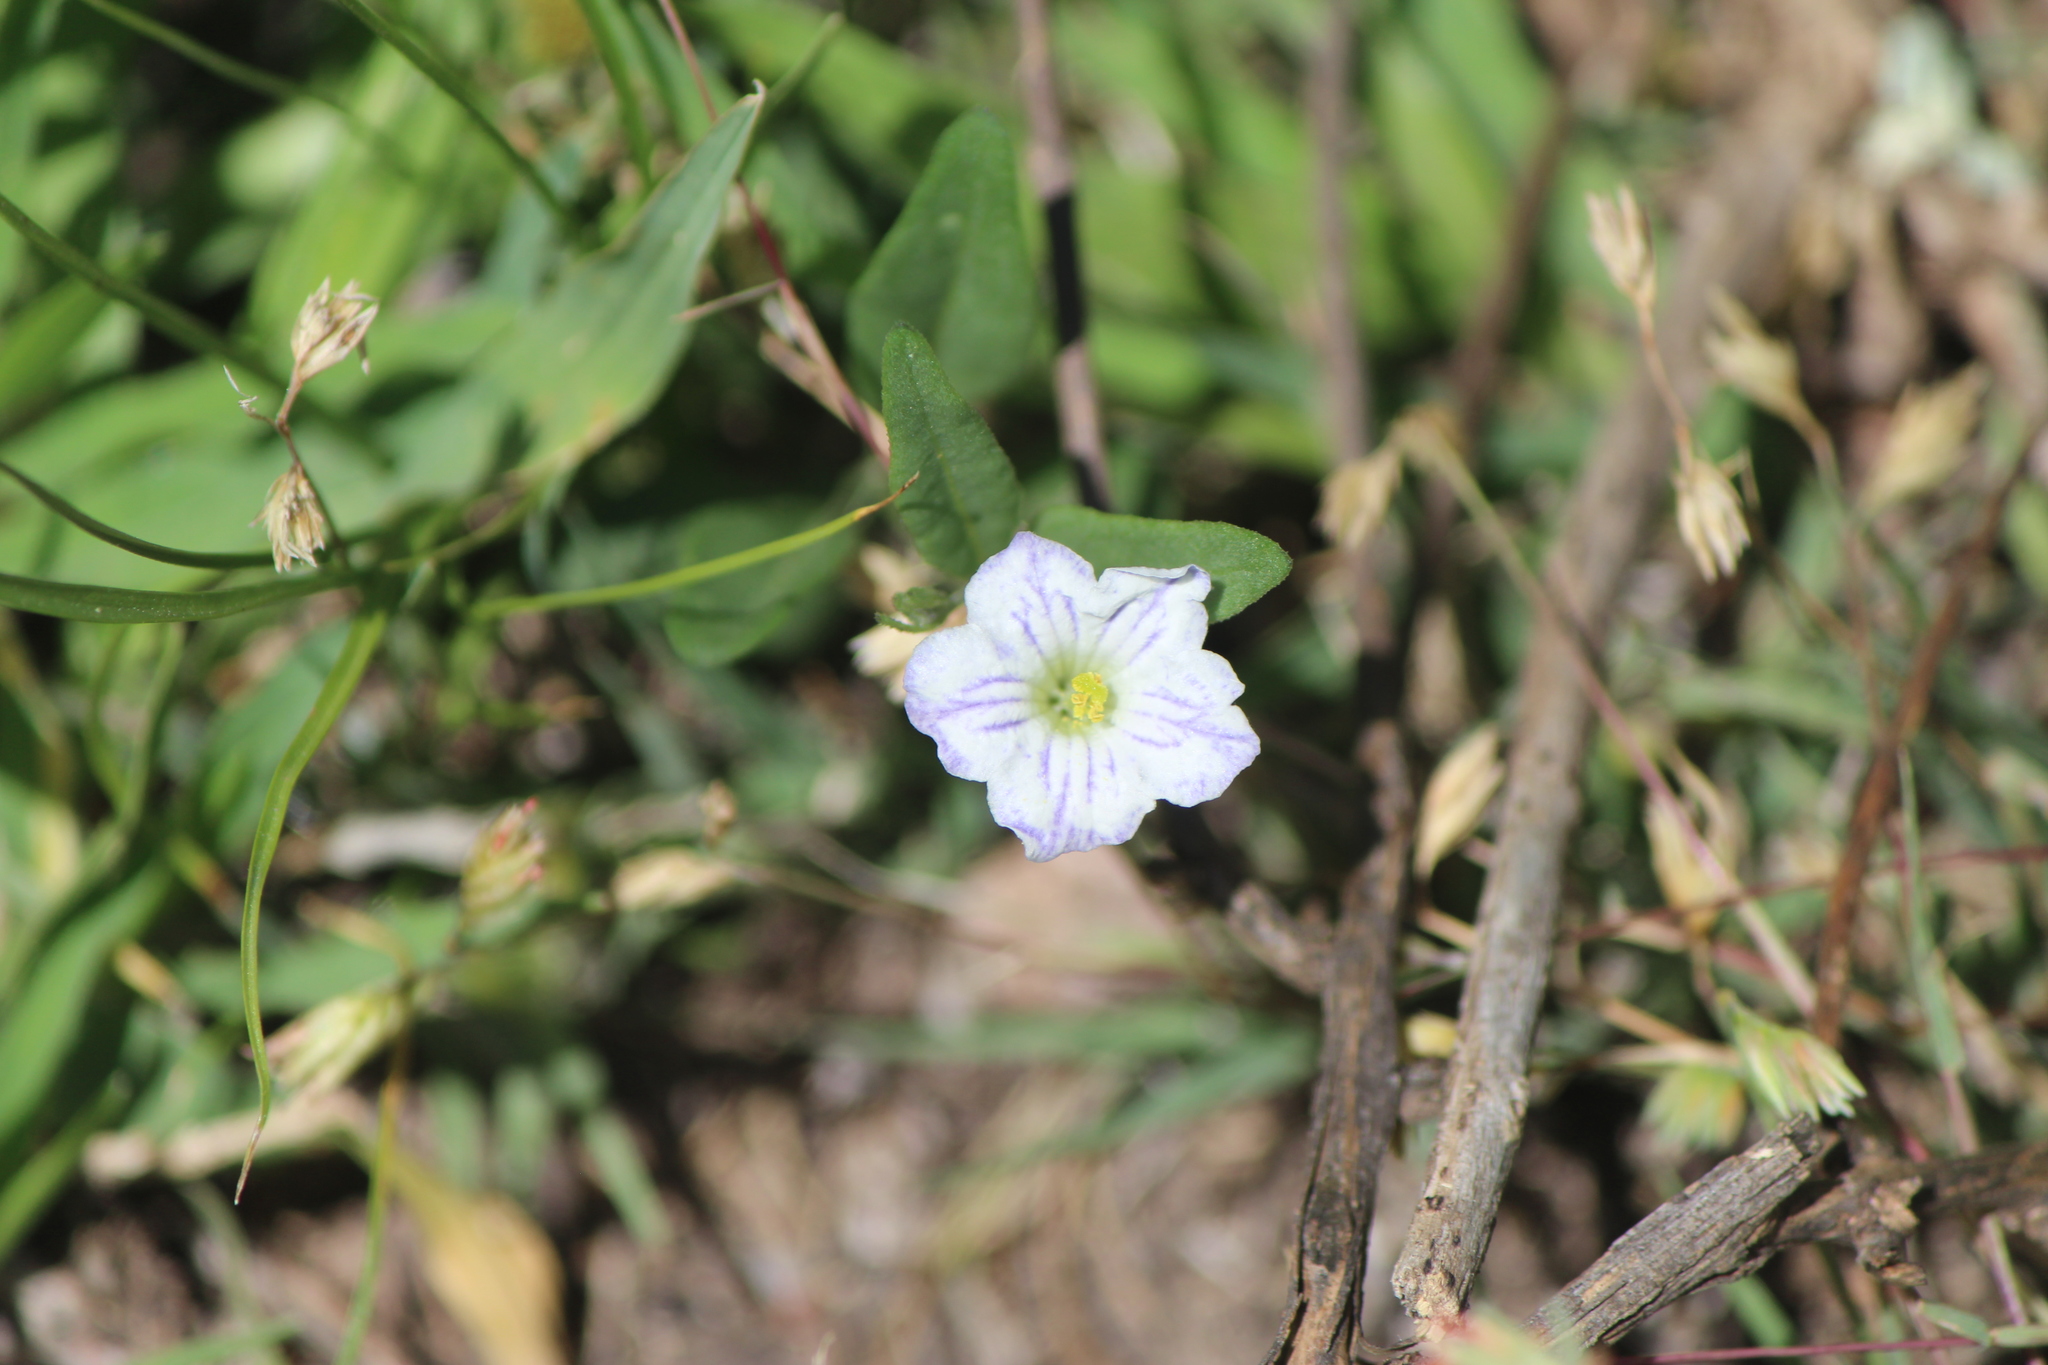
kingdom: Plantae
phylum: Tracheophyta
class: Magnoliopsida
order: Solanales
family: Solanaceae
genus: Salpiglossis
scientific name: Salpiglossis erecta
